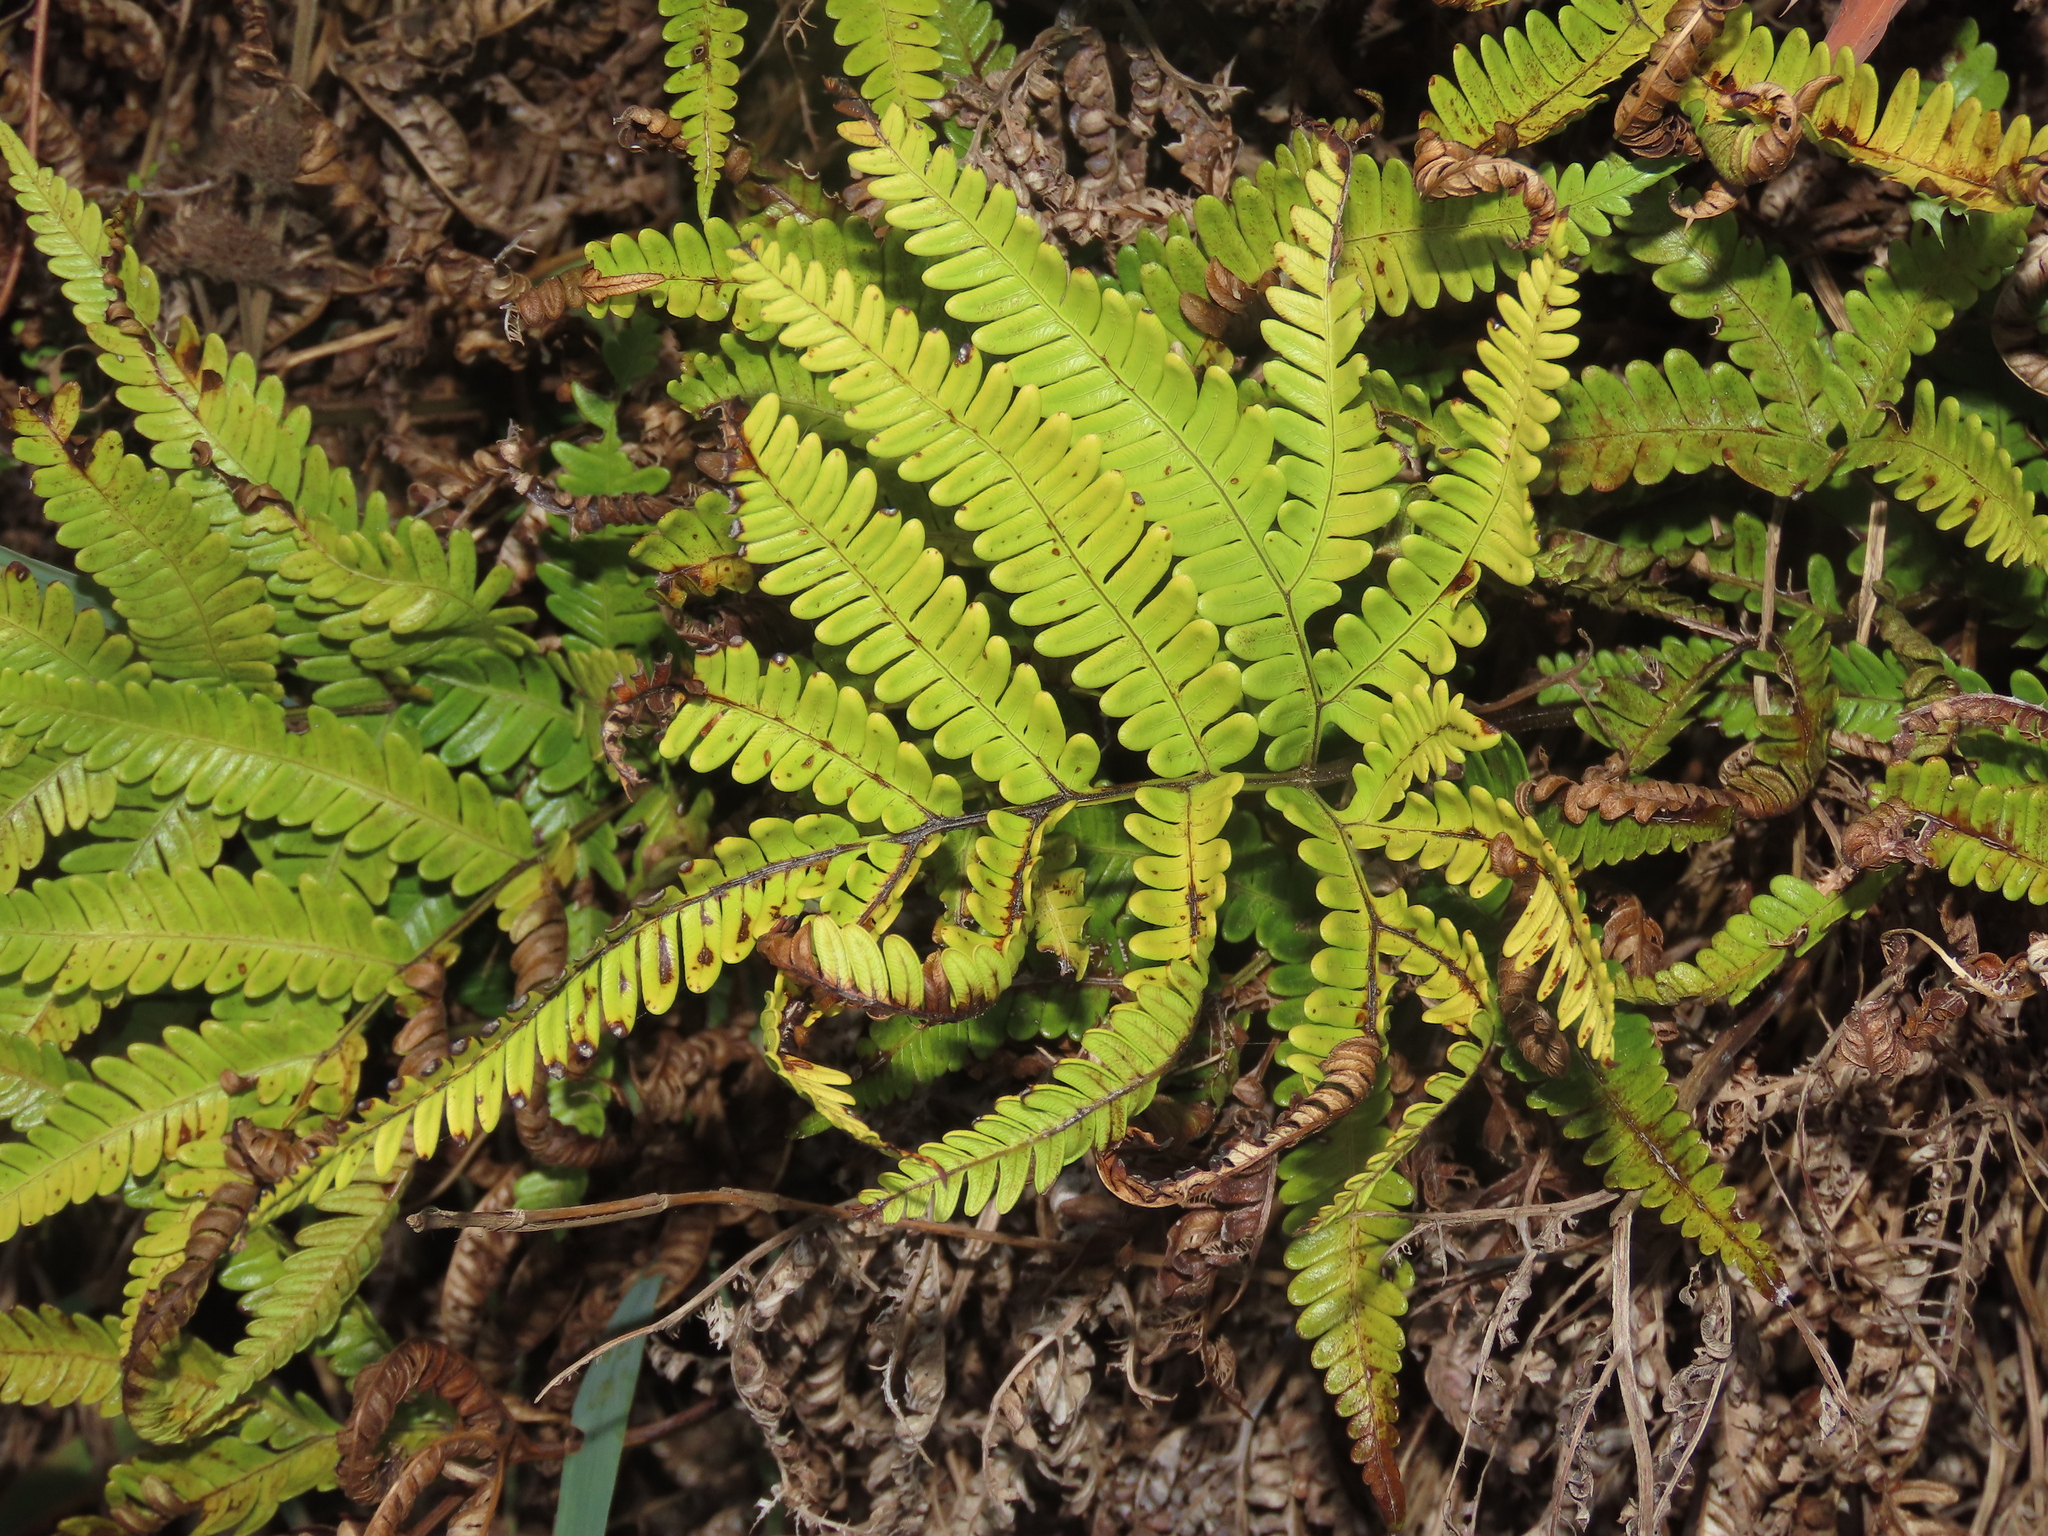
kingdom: Plantae
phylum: Tracheophyta
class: Polypodiopsida
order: Polypodiales
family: Pteridaceae
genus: Pteris
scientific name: Pteris minor
